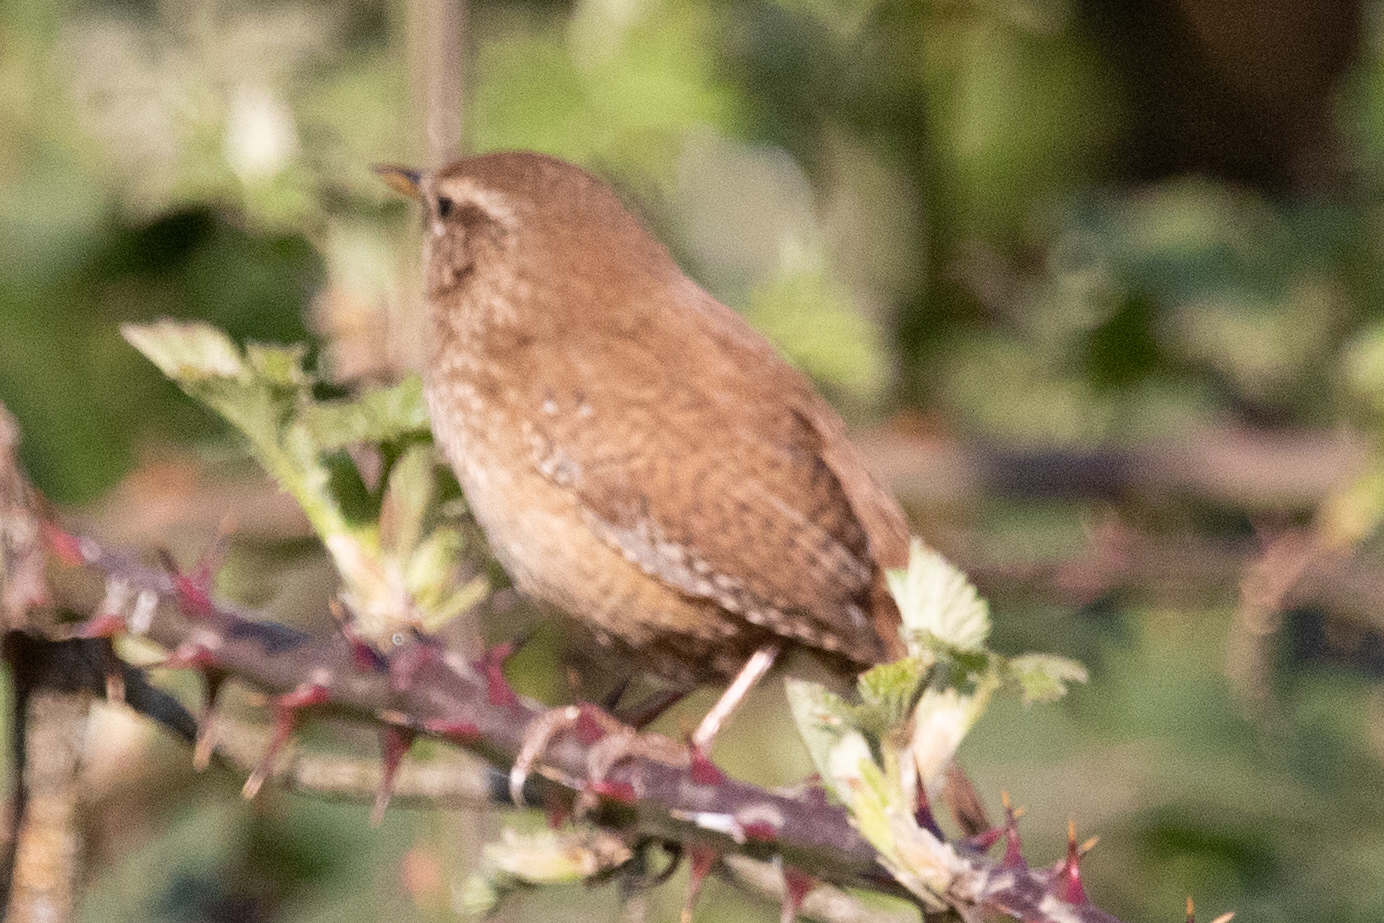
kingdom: Animalia
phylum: Chordata
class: Aves
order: Passeriformes
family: Troglodytidae
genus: Troglodytes
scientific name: Troglodytes troglodytes
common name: Eurasian wren
